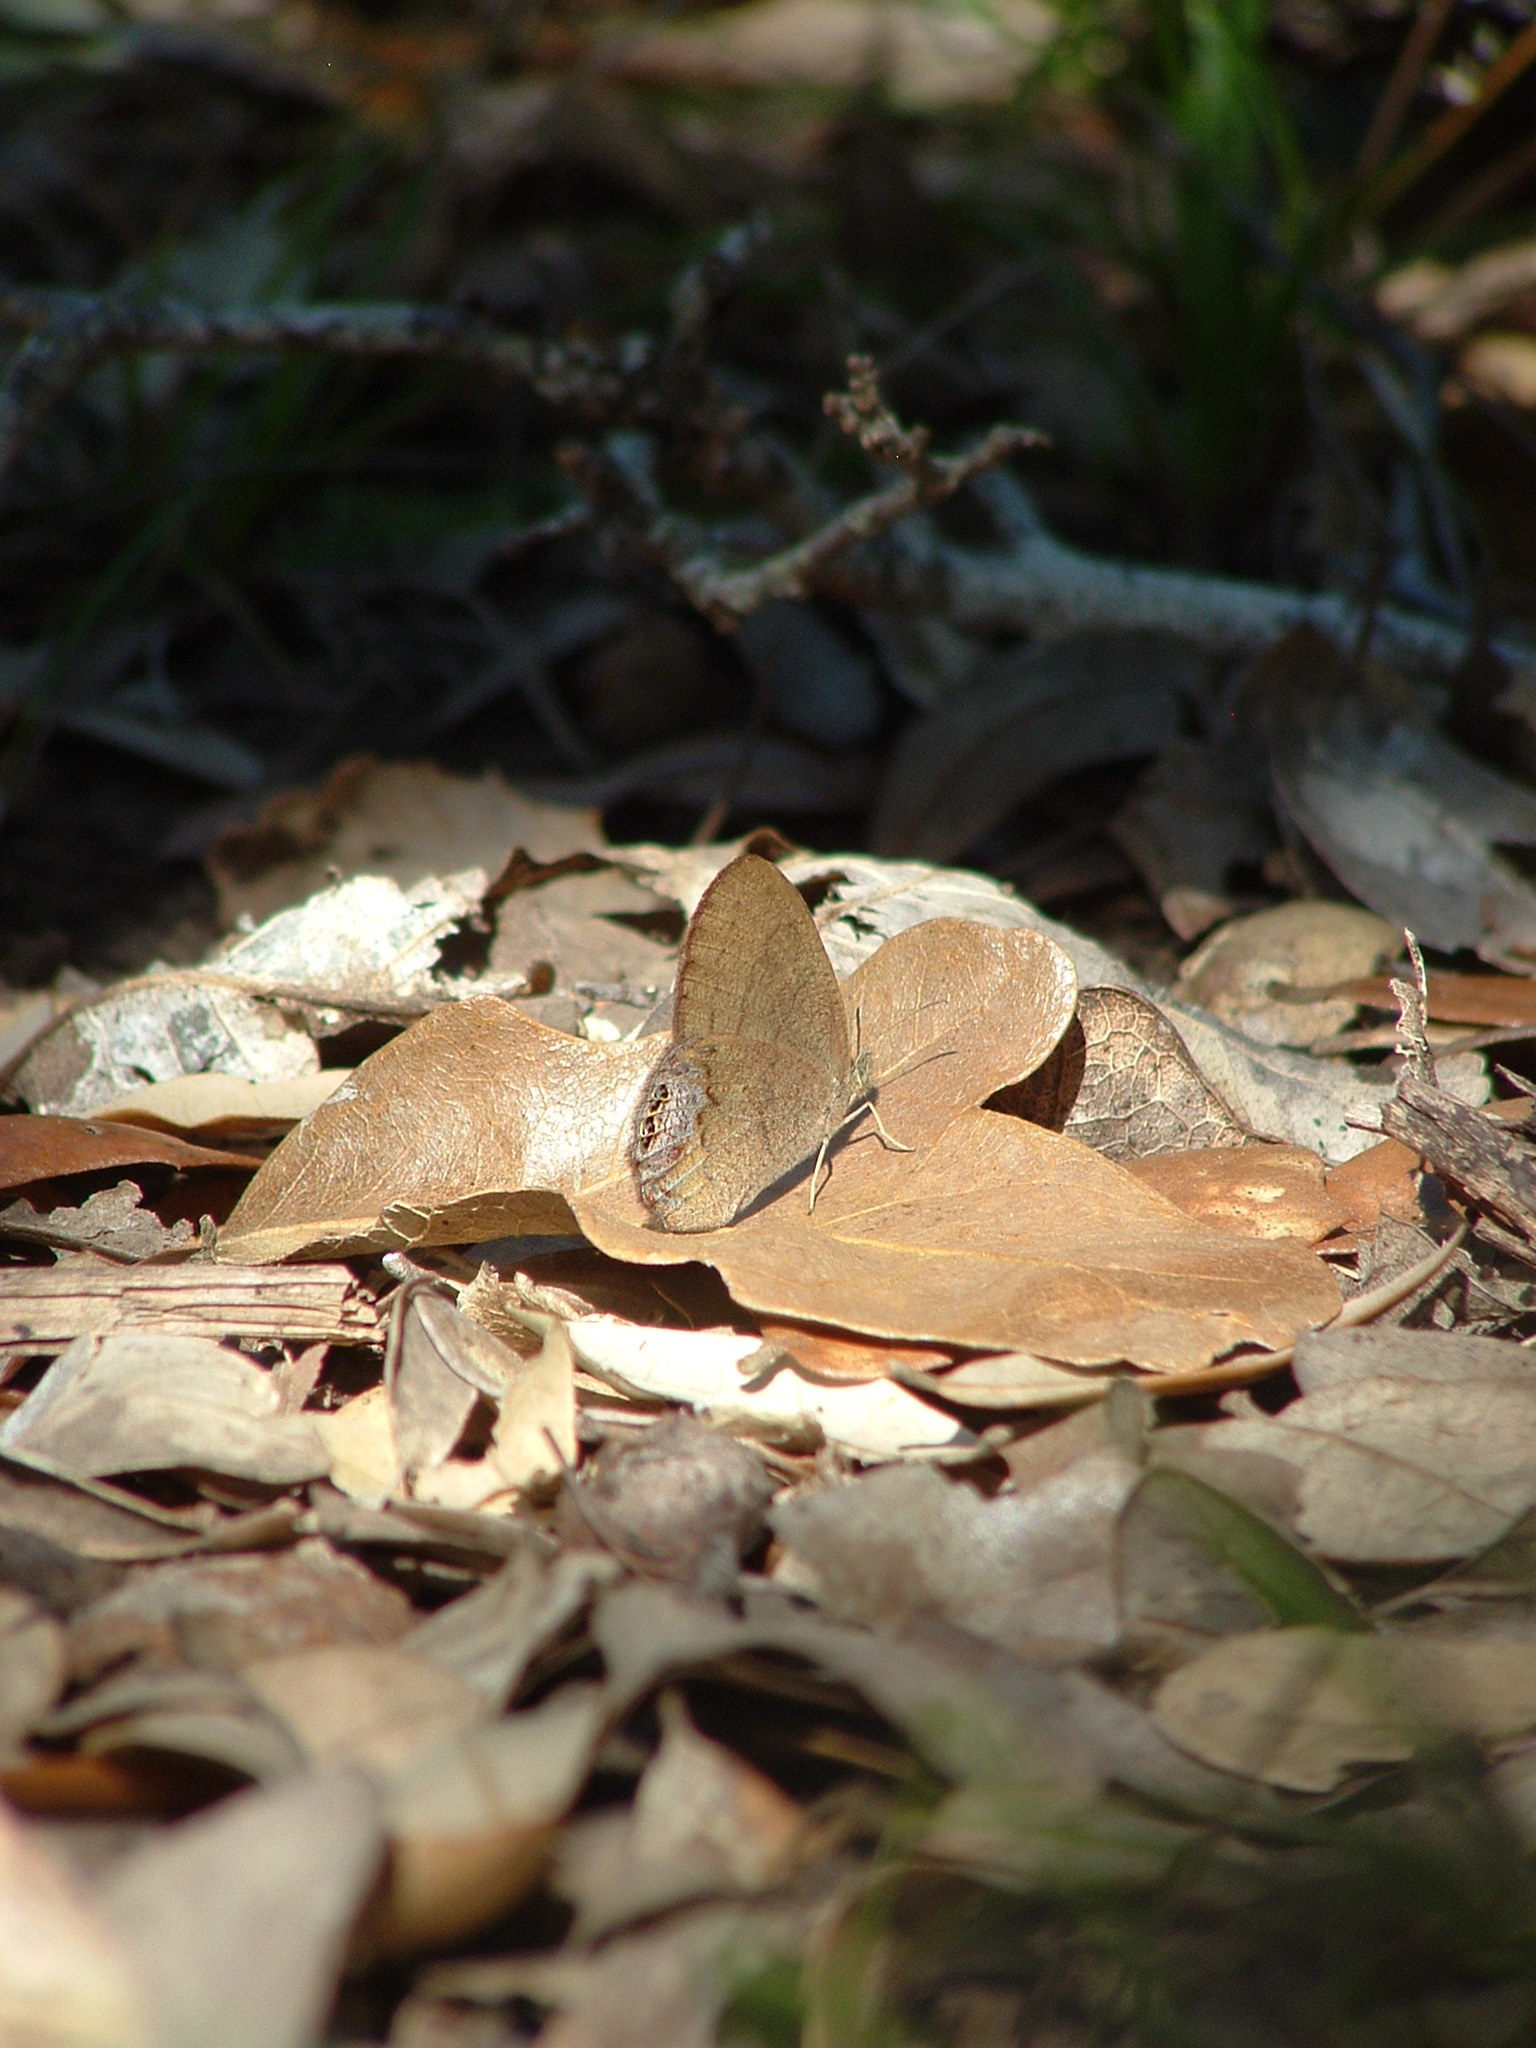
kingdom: Animalia
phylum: Arthropoda
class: Insecta
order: Lepidoptera
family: Nymphalidae
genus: Euptychia
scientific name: Euptychia cornelius
